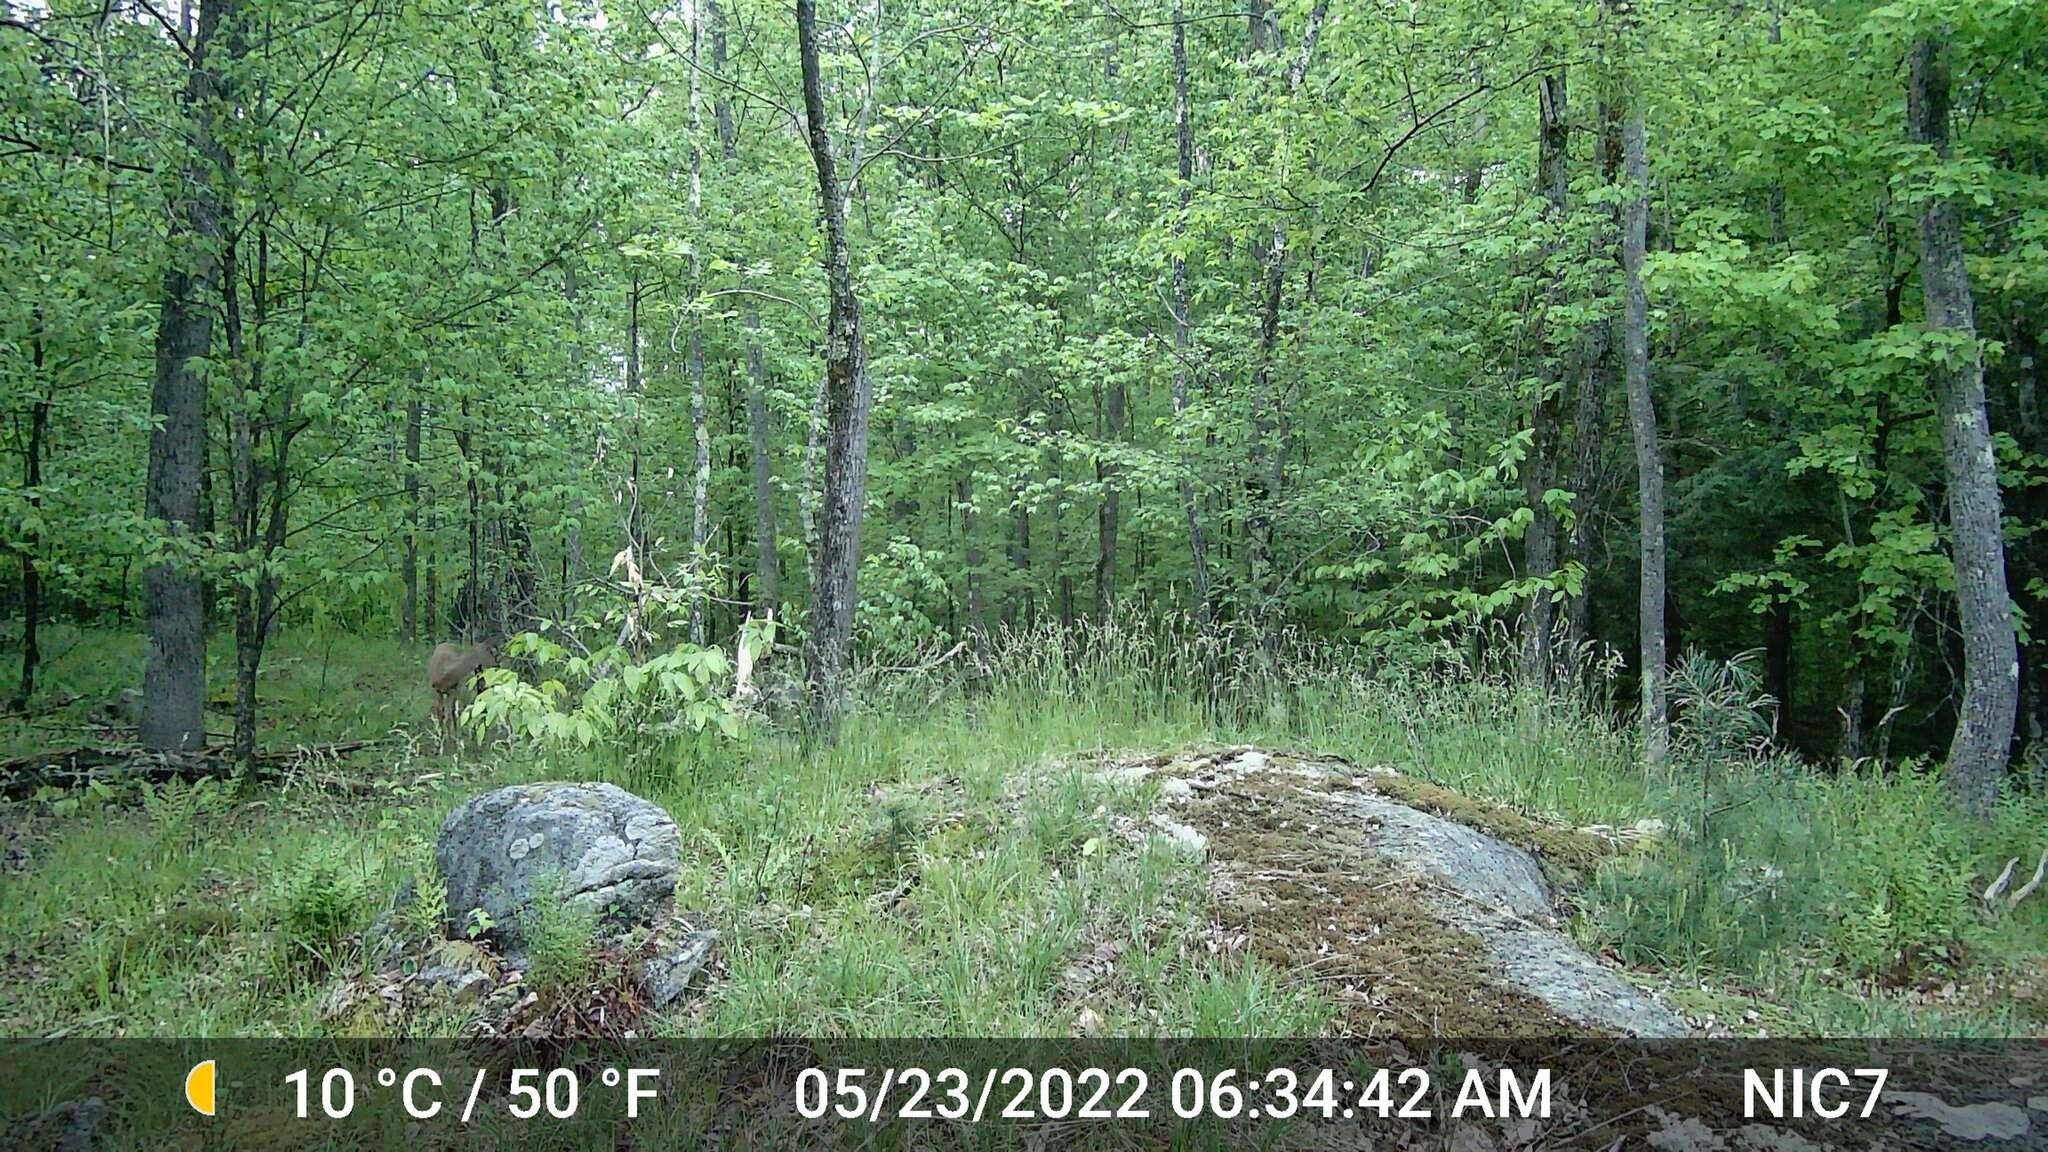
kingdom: Animalia
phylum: Chordata
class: Mammalia
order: Artiodactyla
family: Cervidae
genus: Odocoileus
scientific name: Odocoileus virginianus
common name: White-tailed deer
